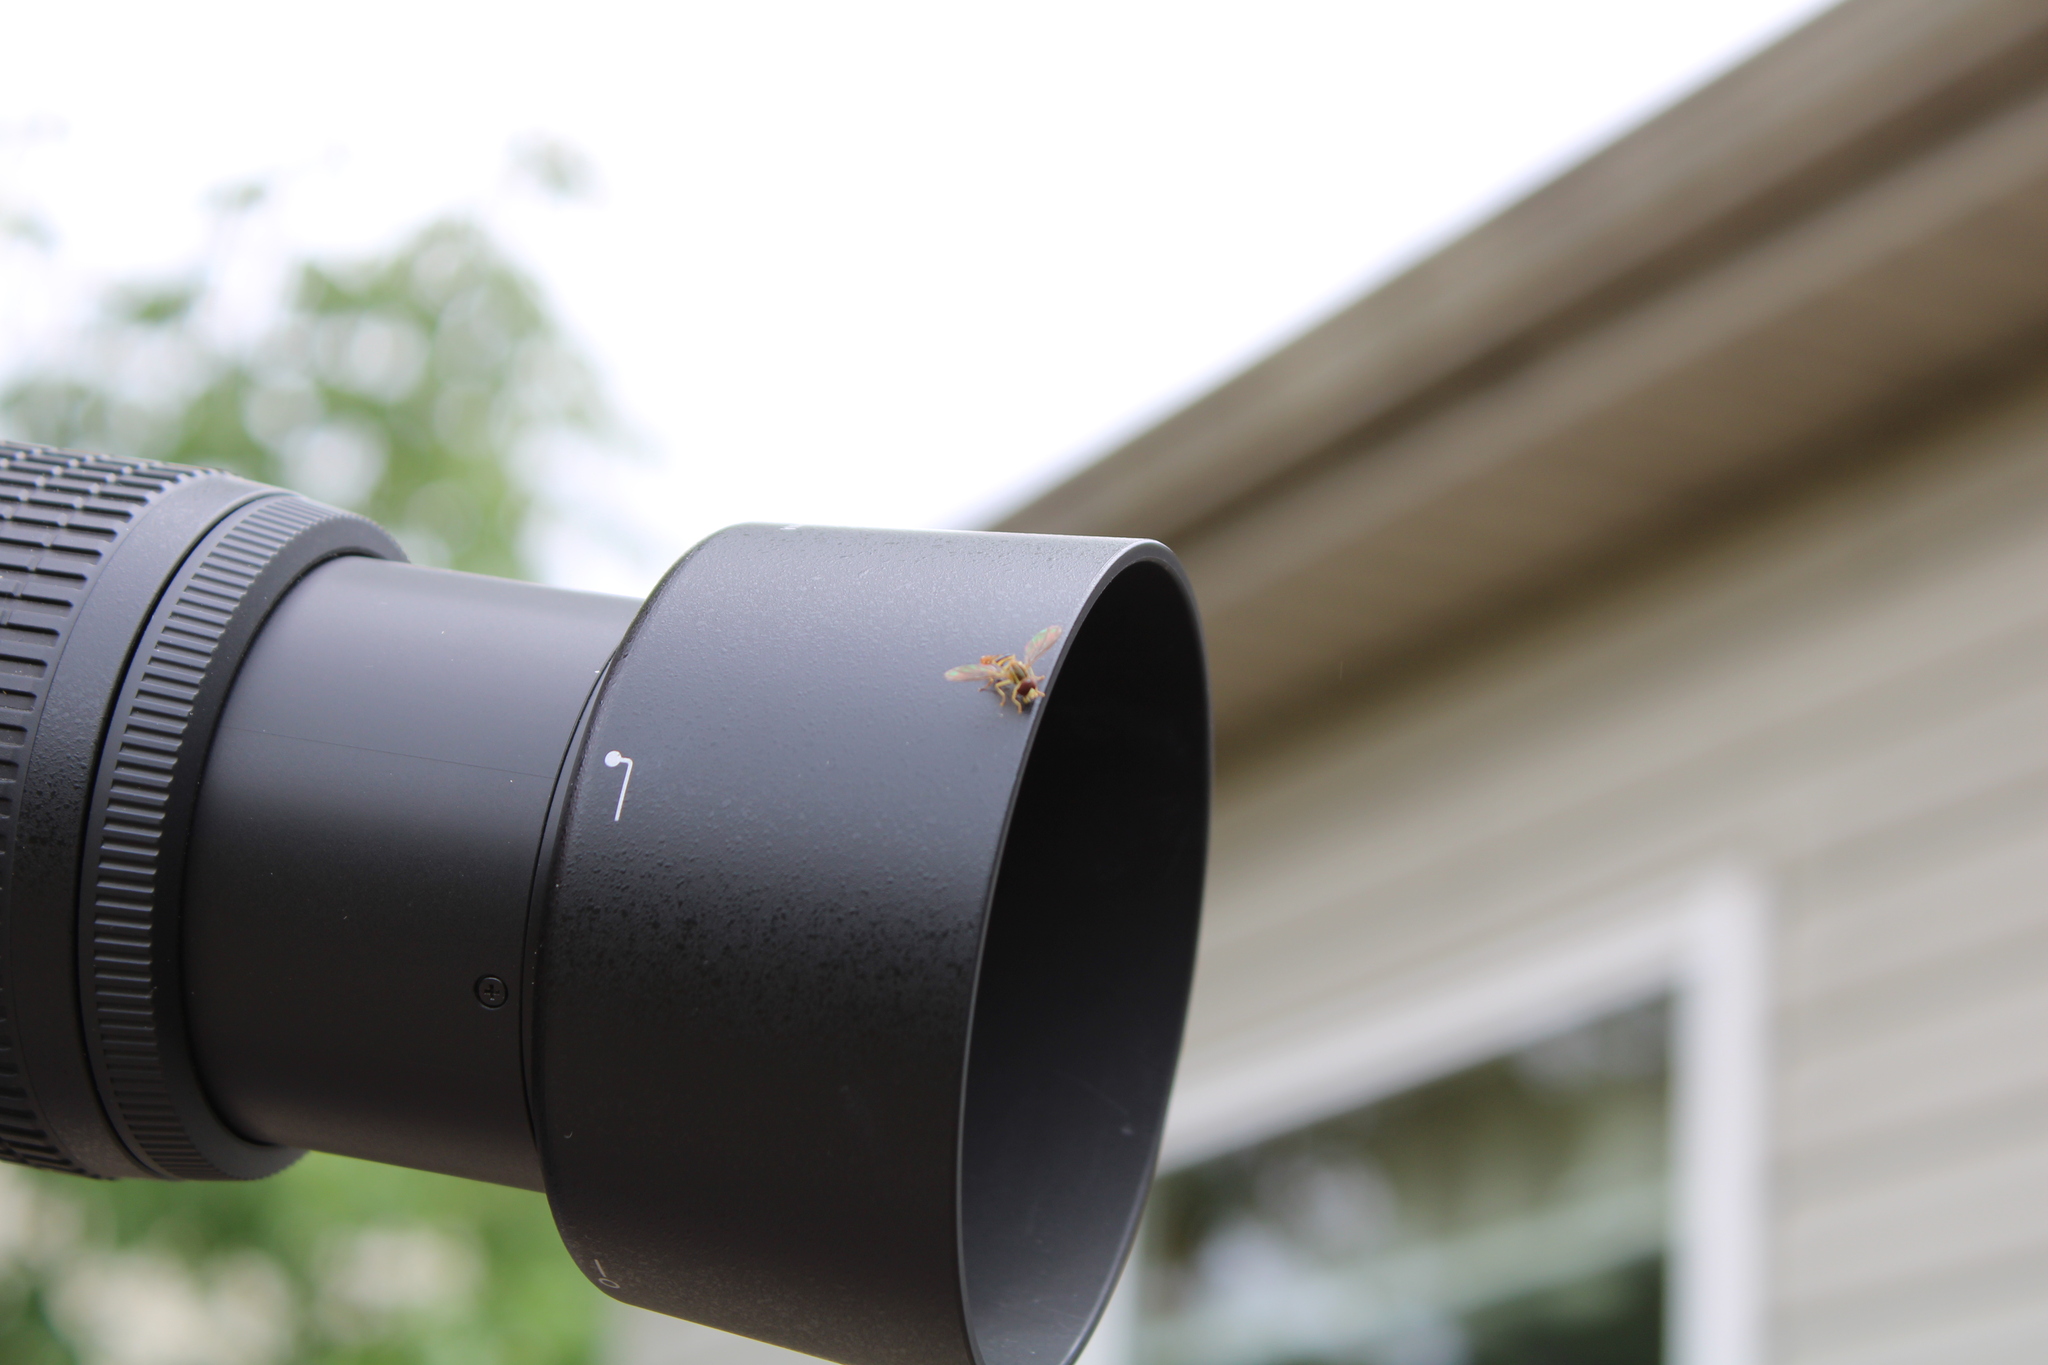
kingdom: Animalia
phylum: Arthropoda
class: Insecta
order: Diptera
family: Syrphidae
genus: Toxomerus
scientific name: Toxomerus
